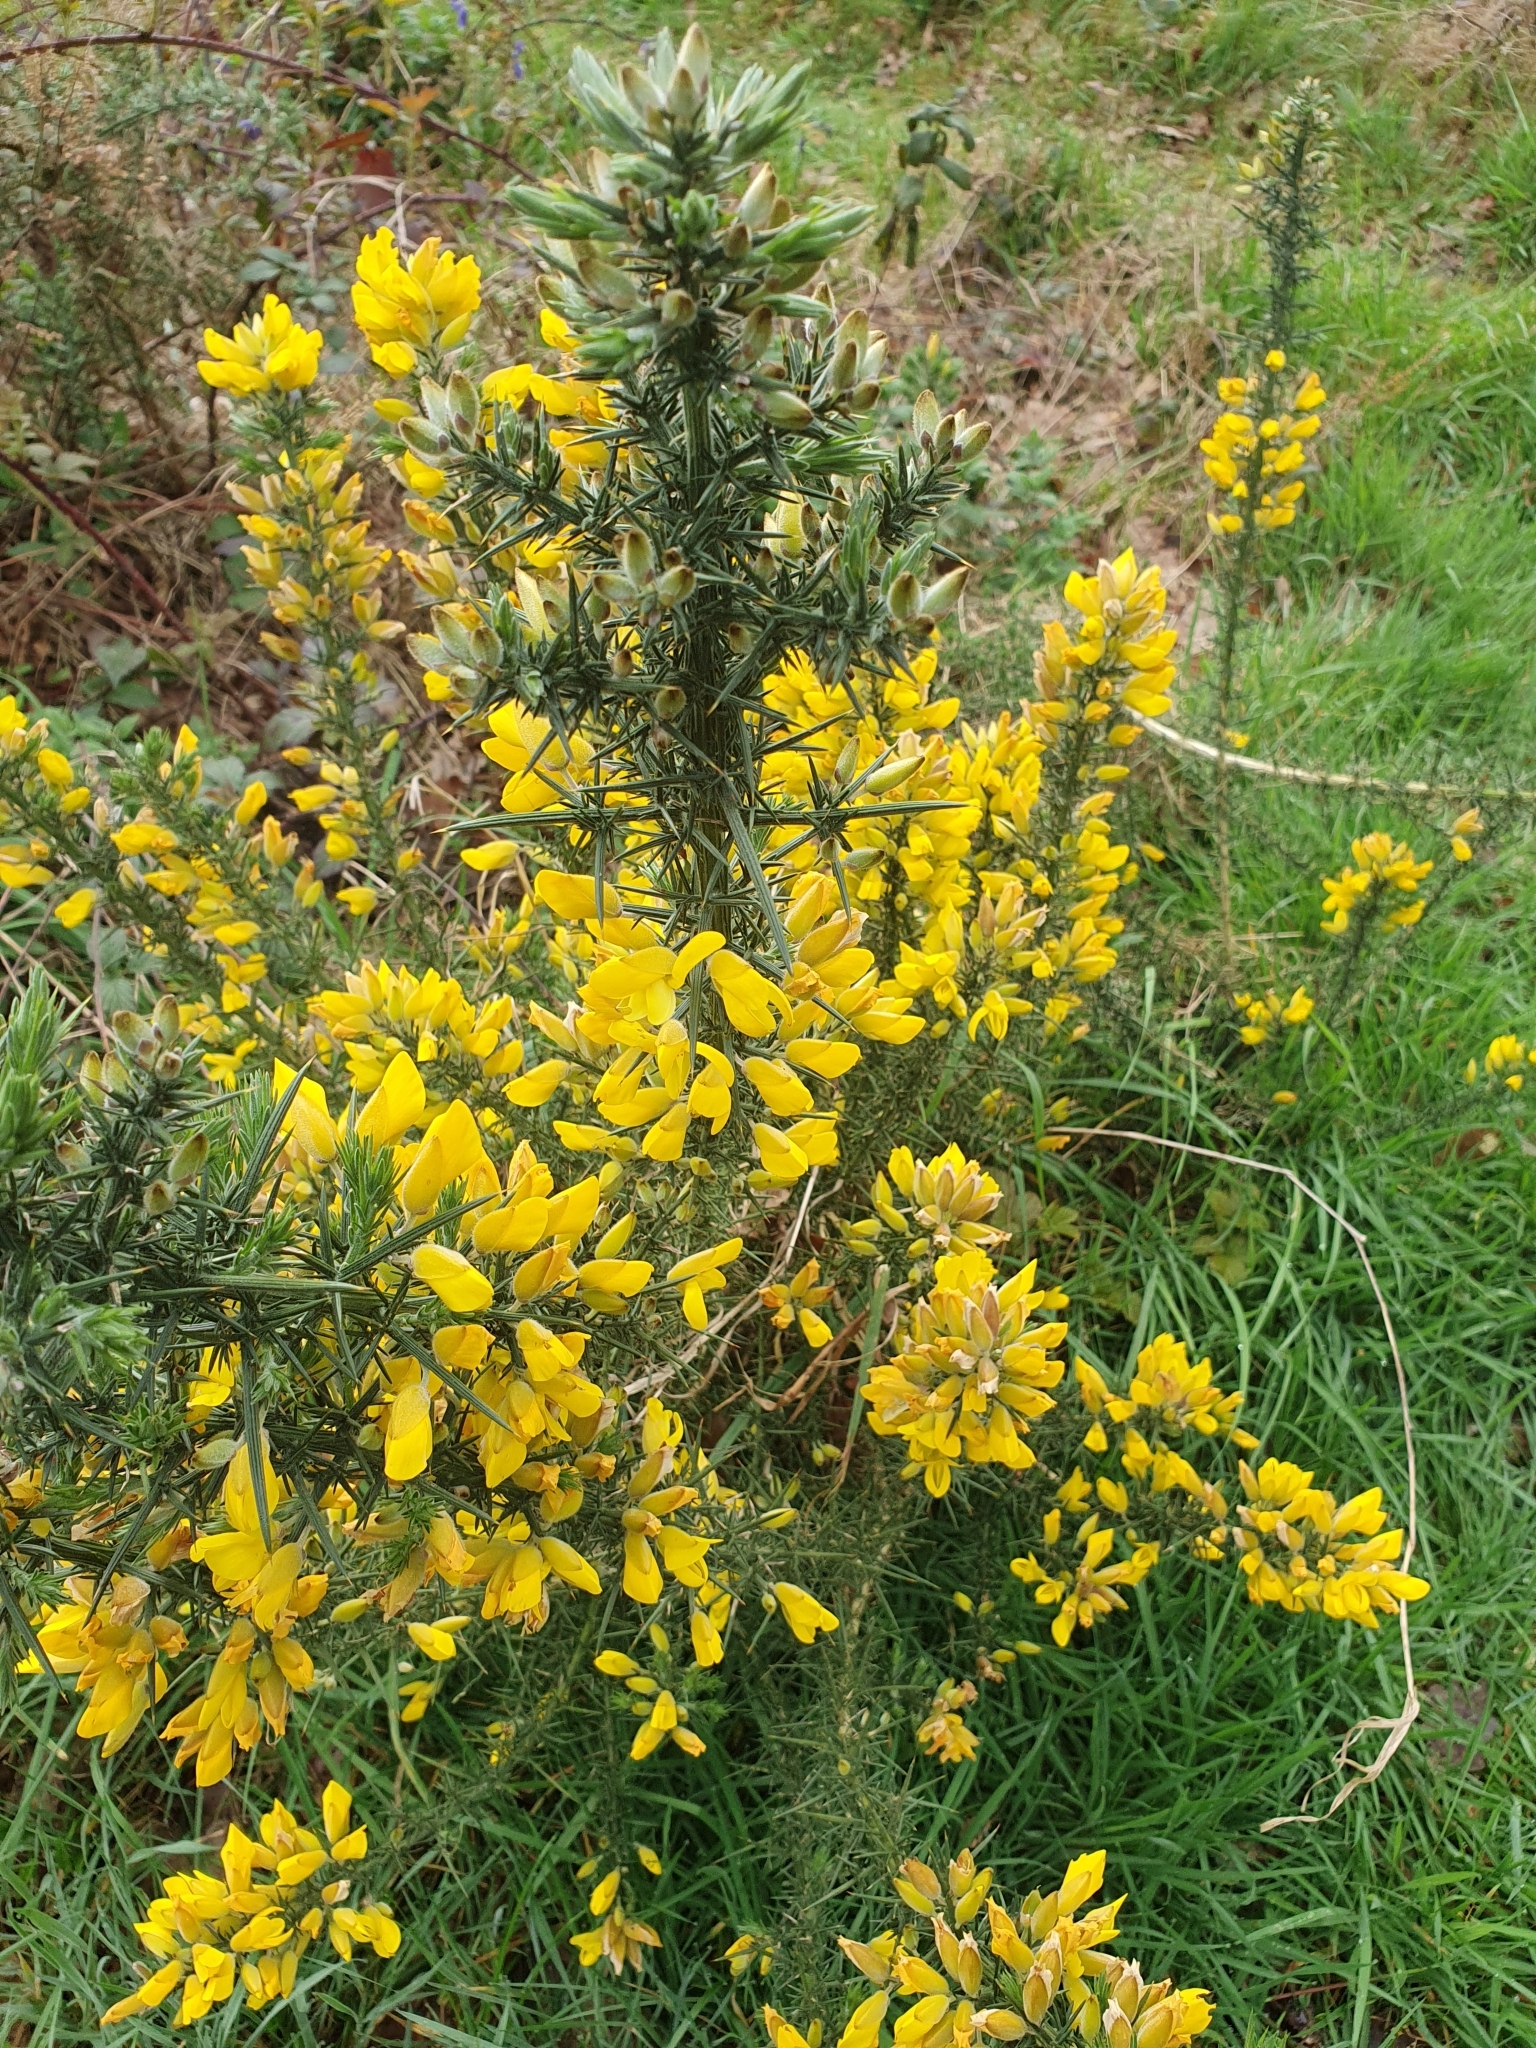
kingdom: Plantae
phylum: Tracheophyta
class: Magnoliopsida
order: Fabales
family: Fabaceae
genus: Ulex
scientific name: Ulex europaeus
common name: Common gorse
